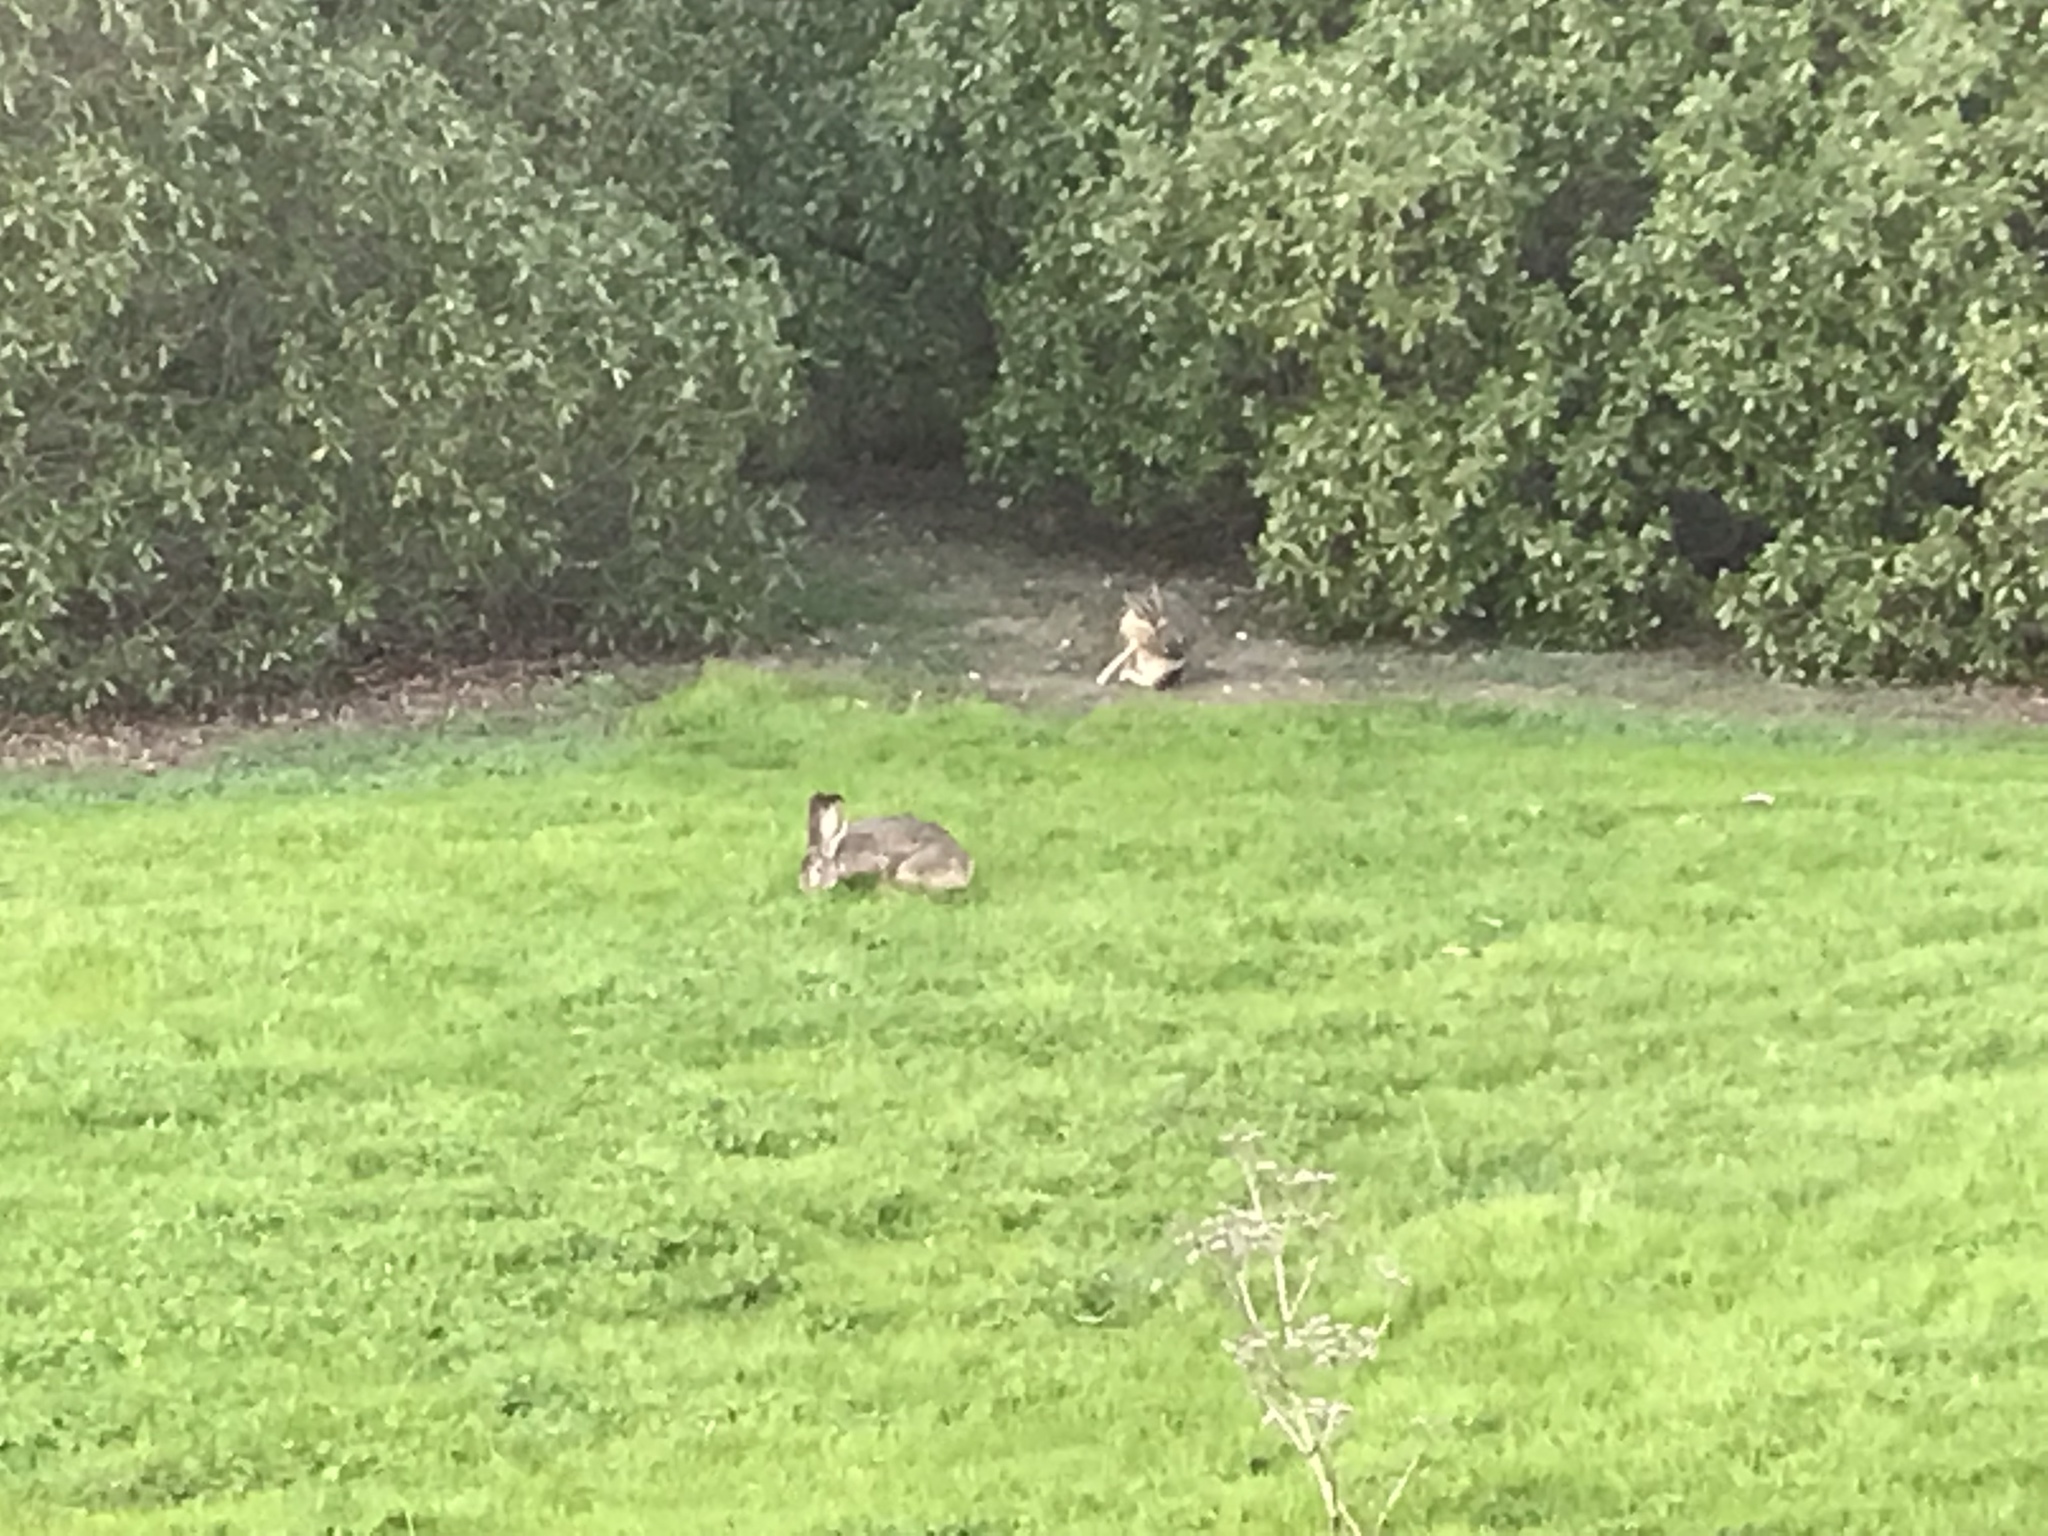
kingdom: Animalia
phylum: Chordata
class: Mammalia
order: Lagomorpha
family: Leporidae
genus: Lepus
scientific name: Lepus californicus
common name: Black-tailed jackrabbit
